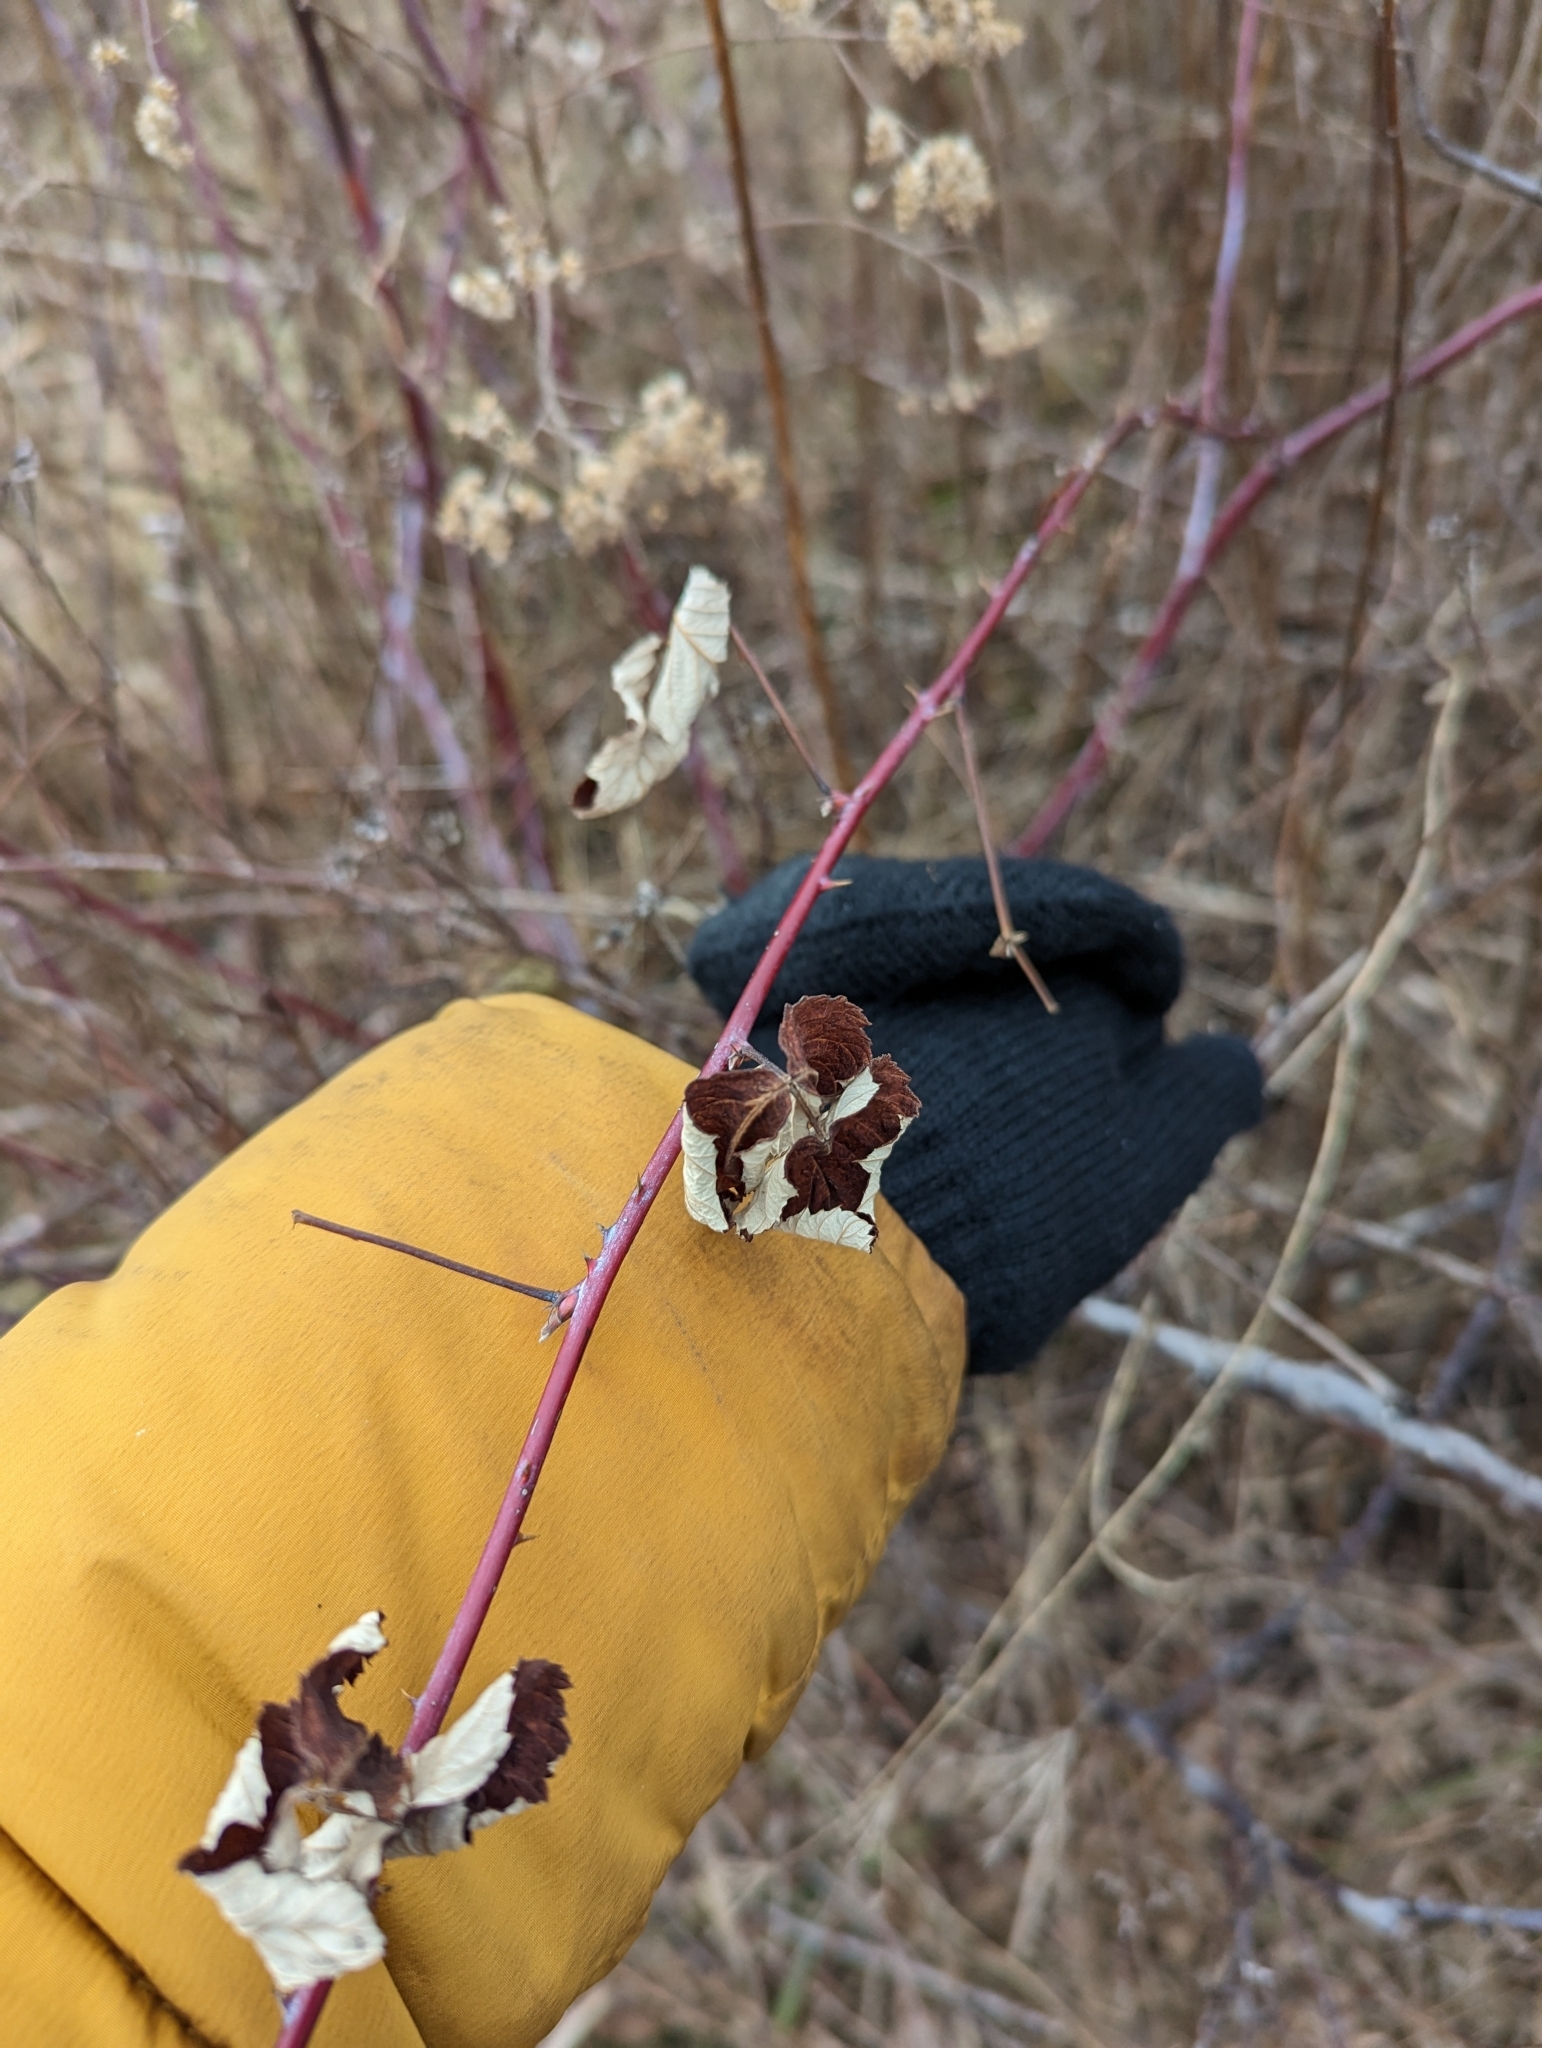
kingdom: Plantae
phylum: Tracheophyta
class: Magnoliopsida
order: Rosales
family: Rosaceae
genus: Rubus
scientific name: Rubus occidentalis
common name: Black raspberry
